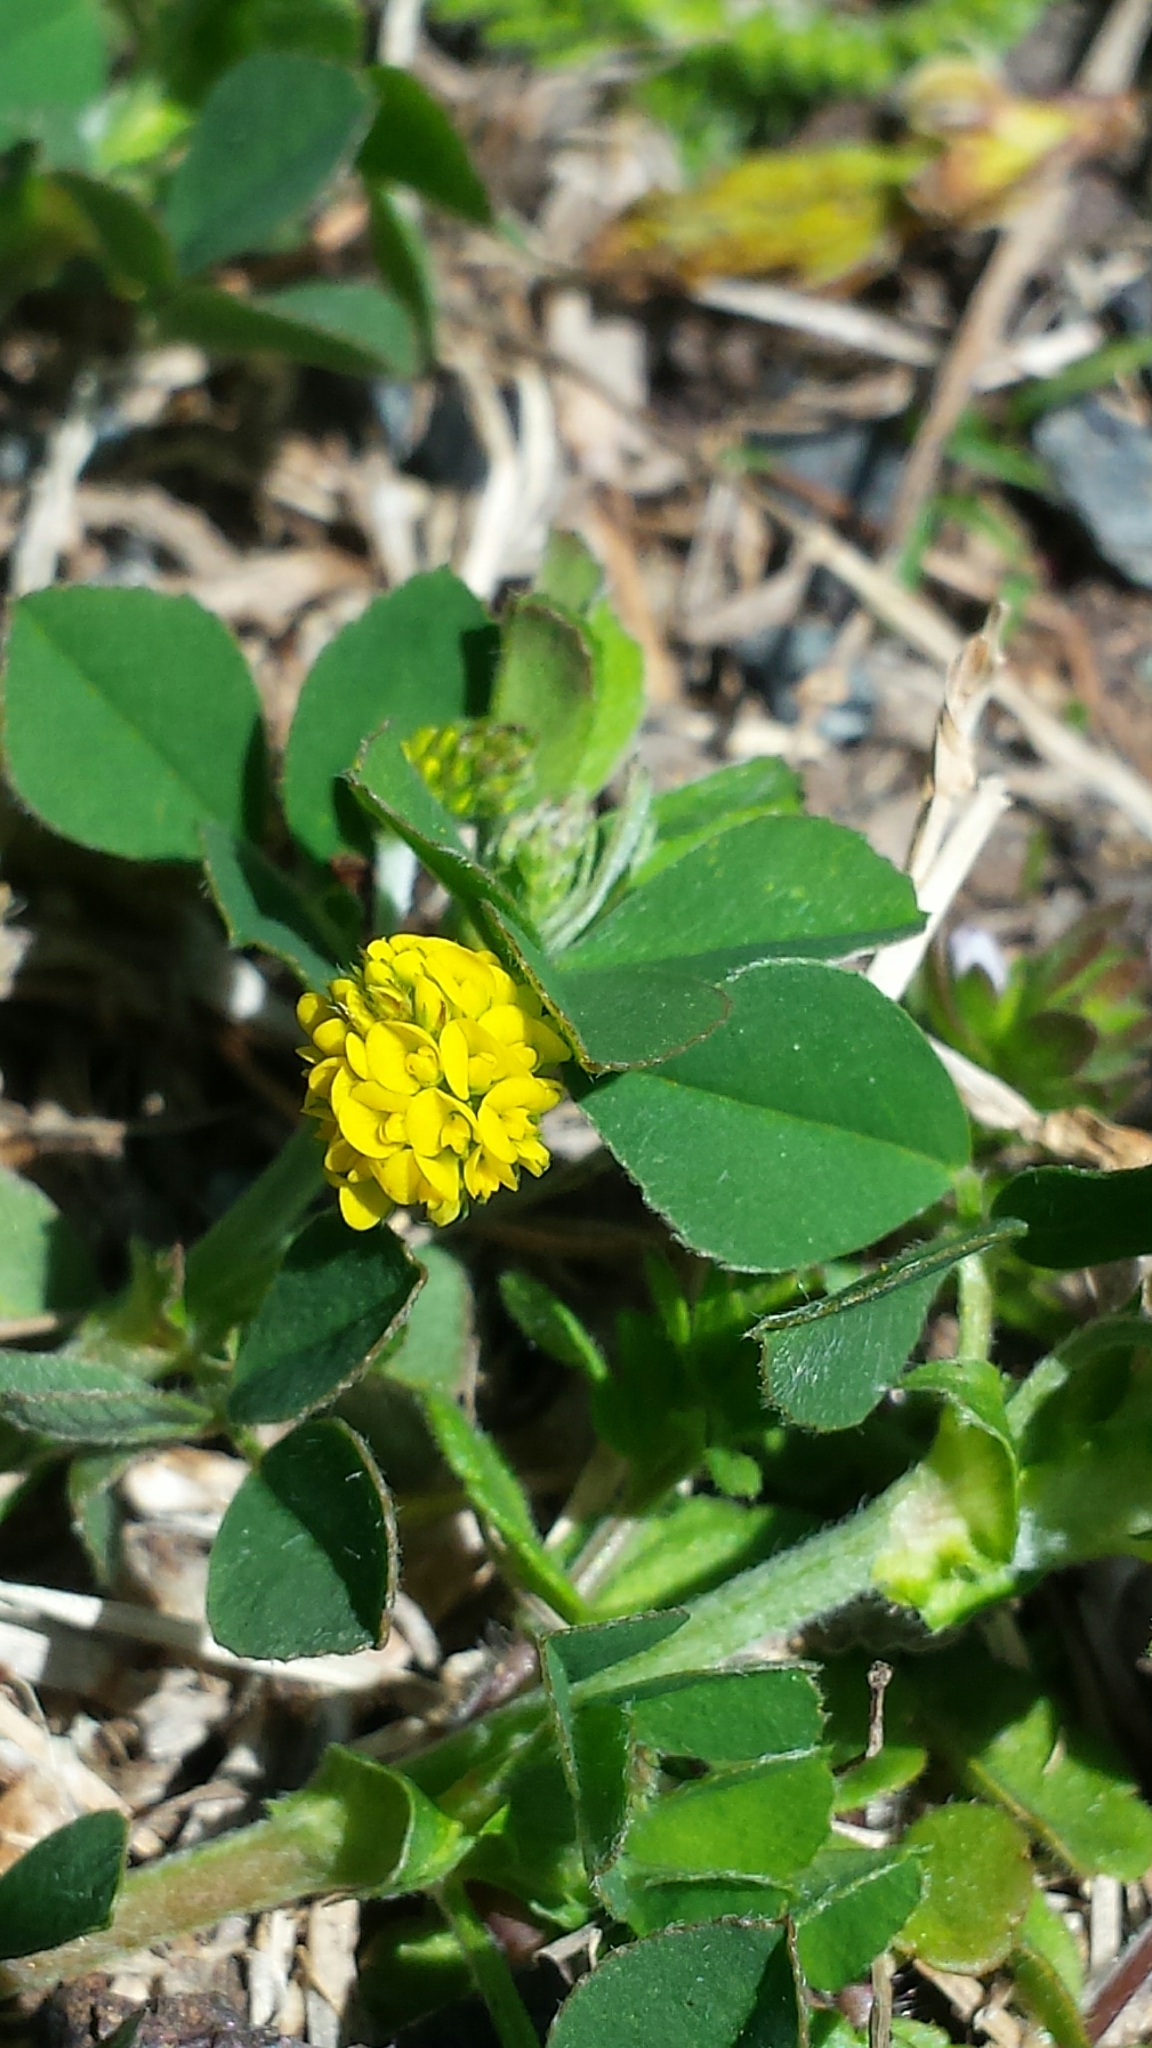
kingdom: Plantae
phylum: Tracheophyta
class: Magnoliopsida
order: Fabales
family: Fabaceae
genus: Medicago
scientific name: Medicago lupulina
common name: Black medick
